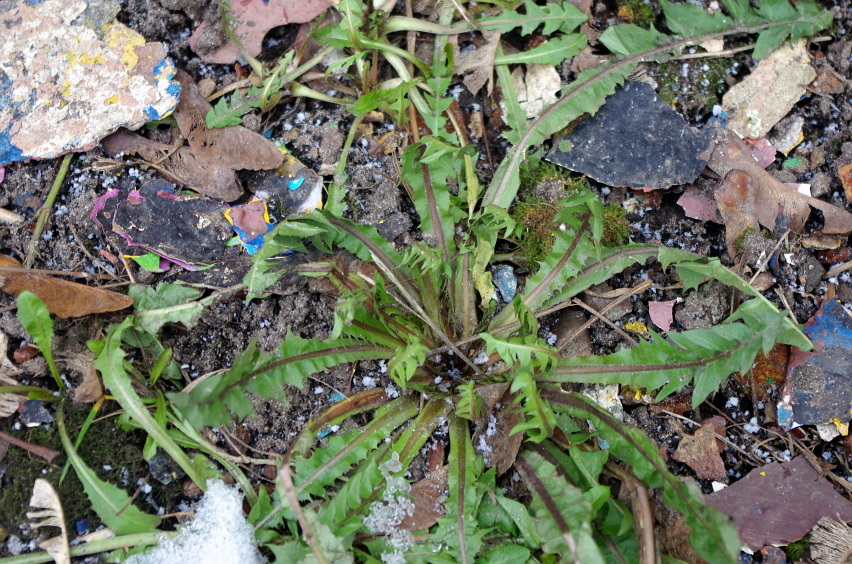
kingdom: Plantae
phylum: Tracheophyta
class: Magnoliopsida
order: Asterales
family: Asteraceae
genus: Taraxacum
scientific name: Taraxacum officinale
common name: Common dandelion
